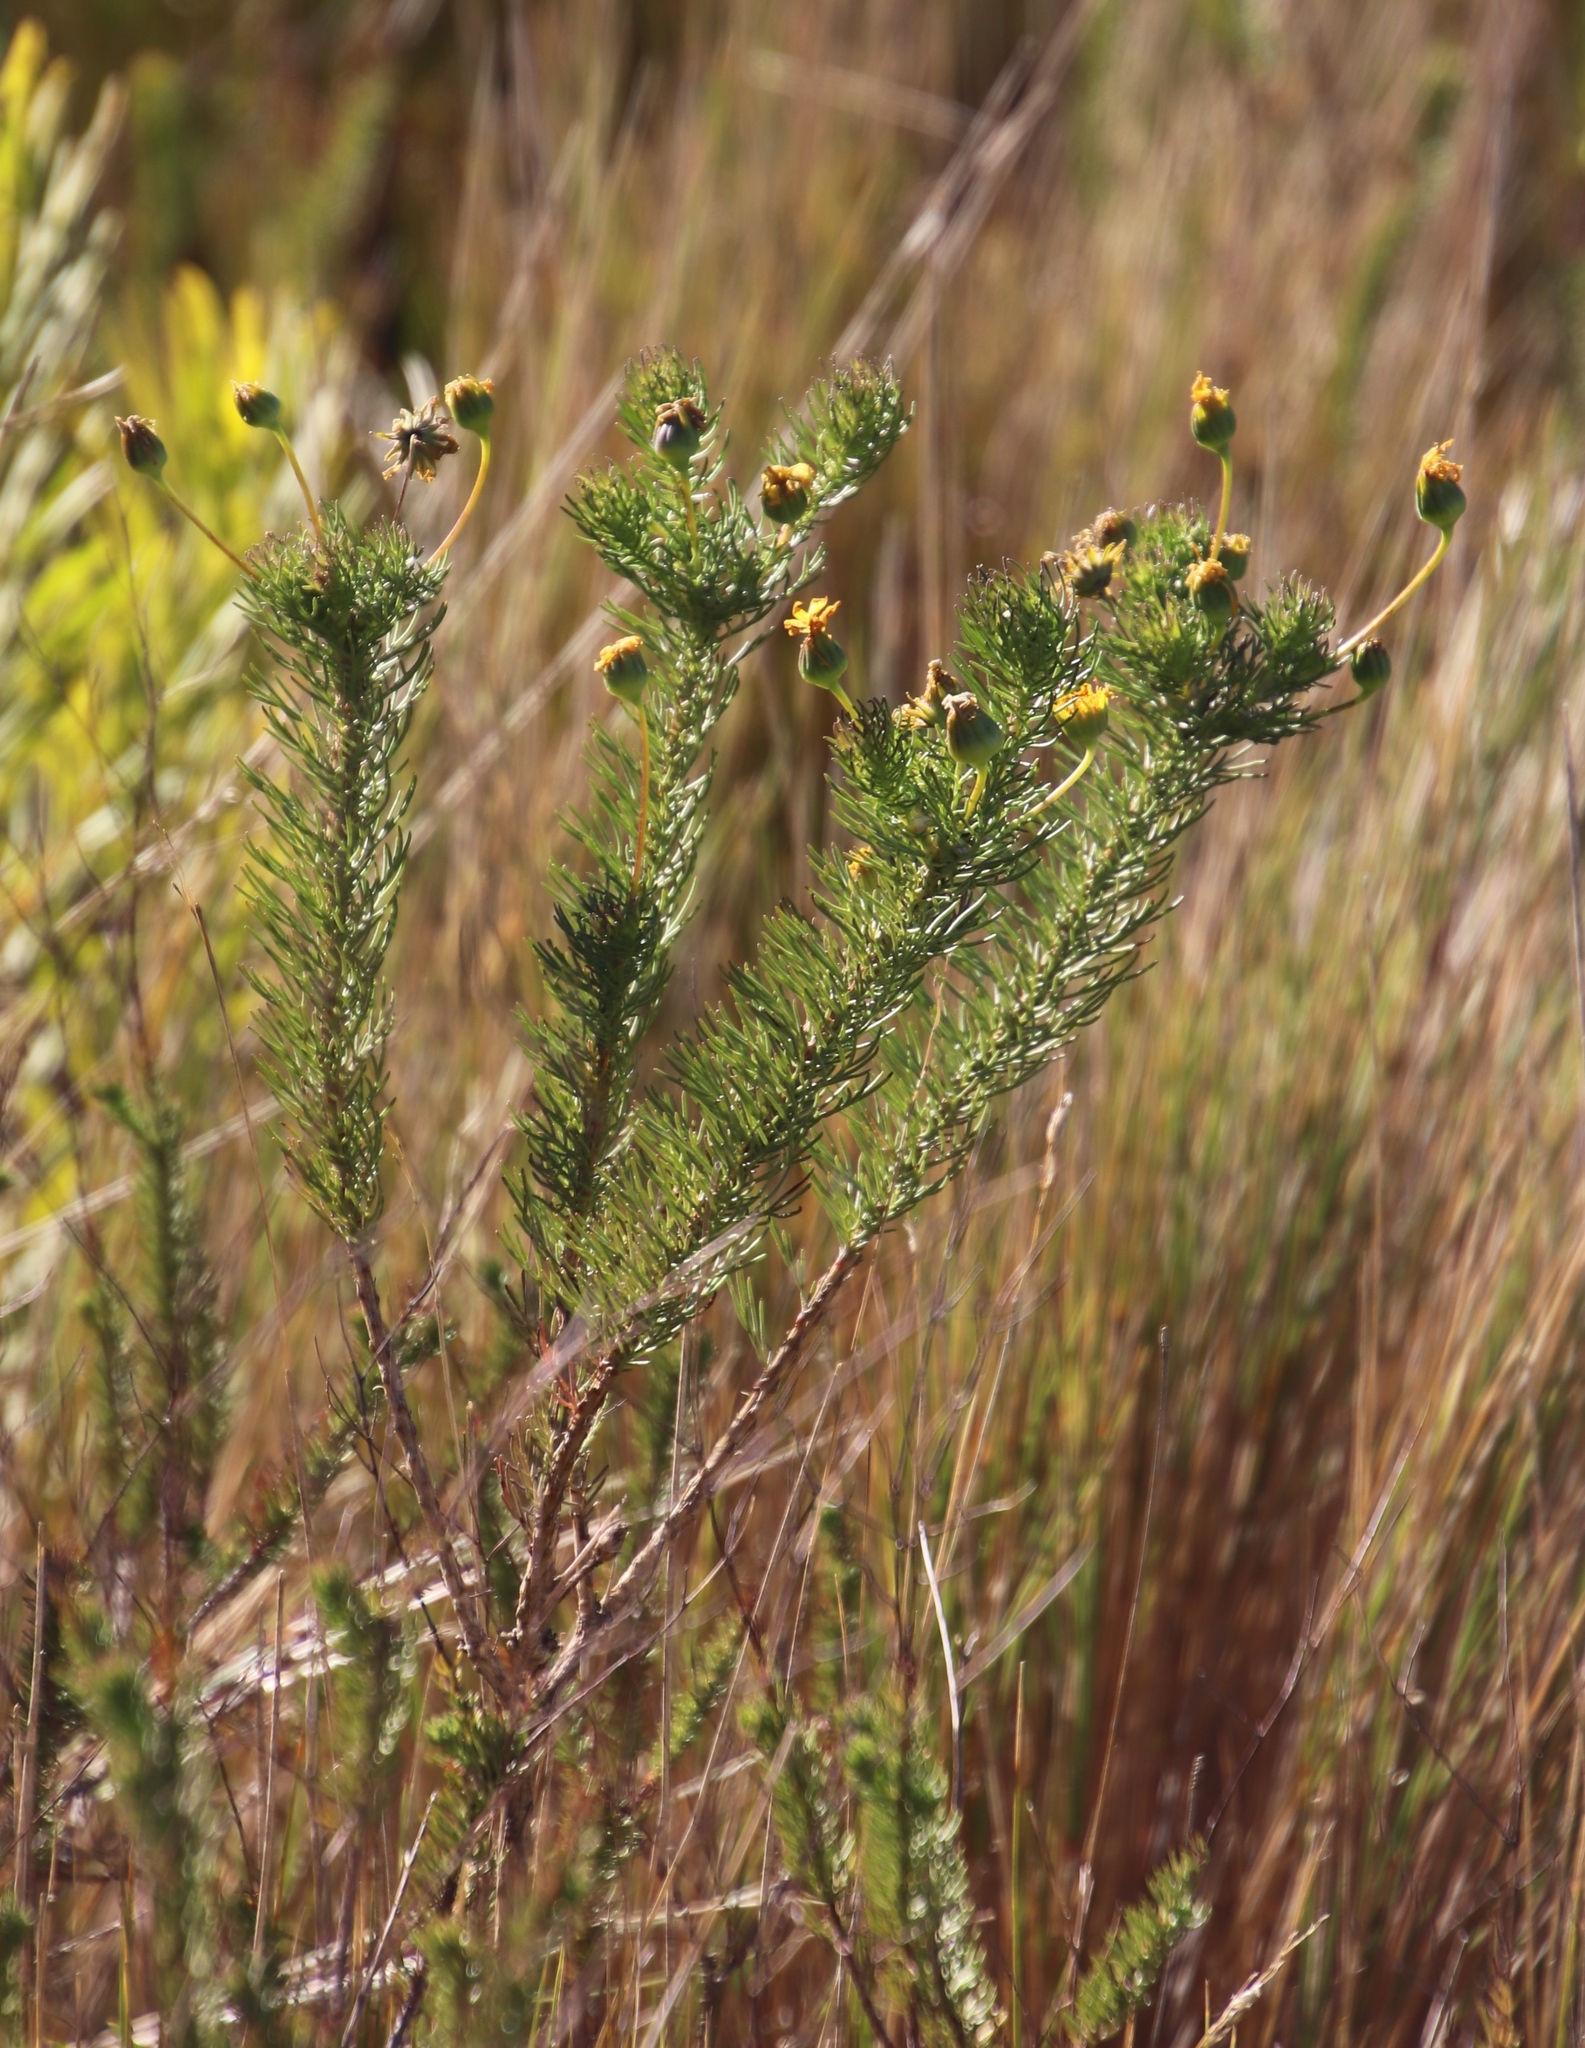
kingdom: Plantae
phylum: Tracheophyta
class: Magnoliopsida
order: Asterales
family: Asteraceae
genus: Euryops
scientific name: Euryops abrotanifolius
